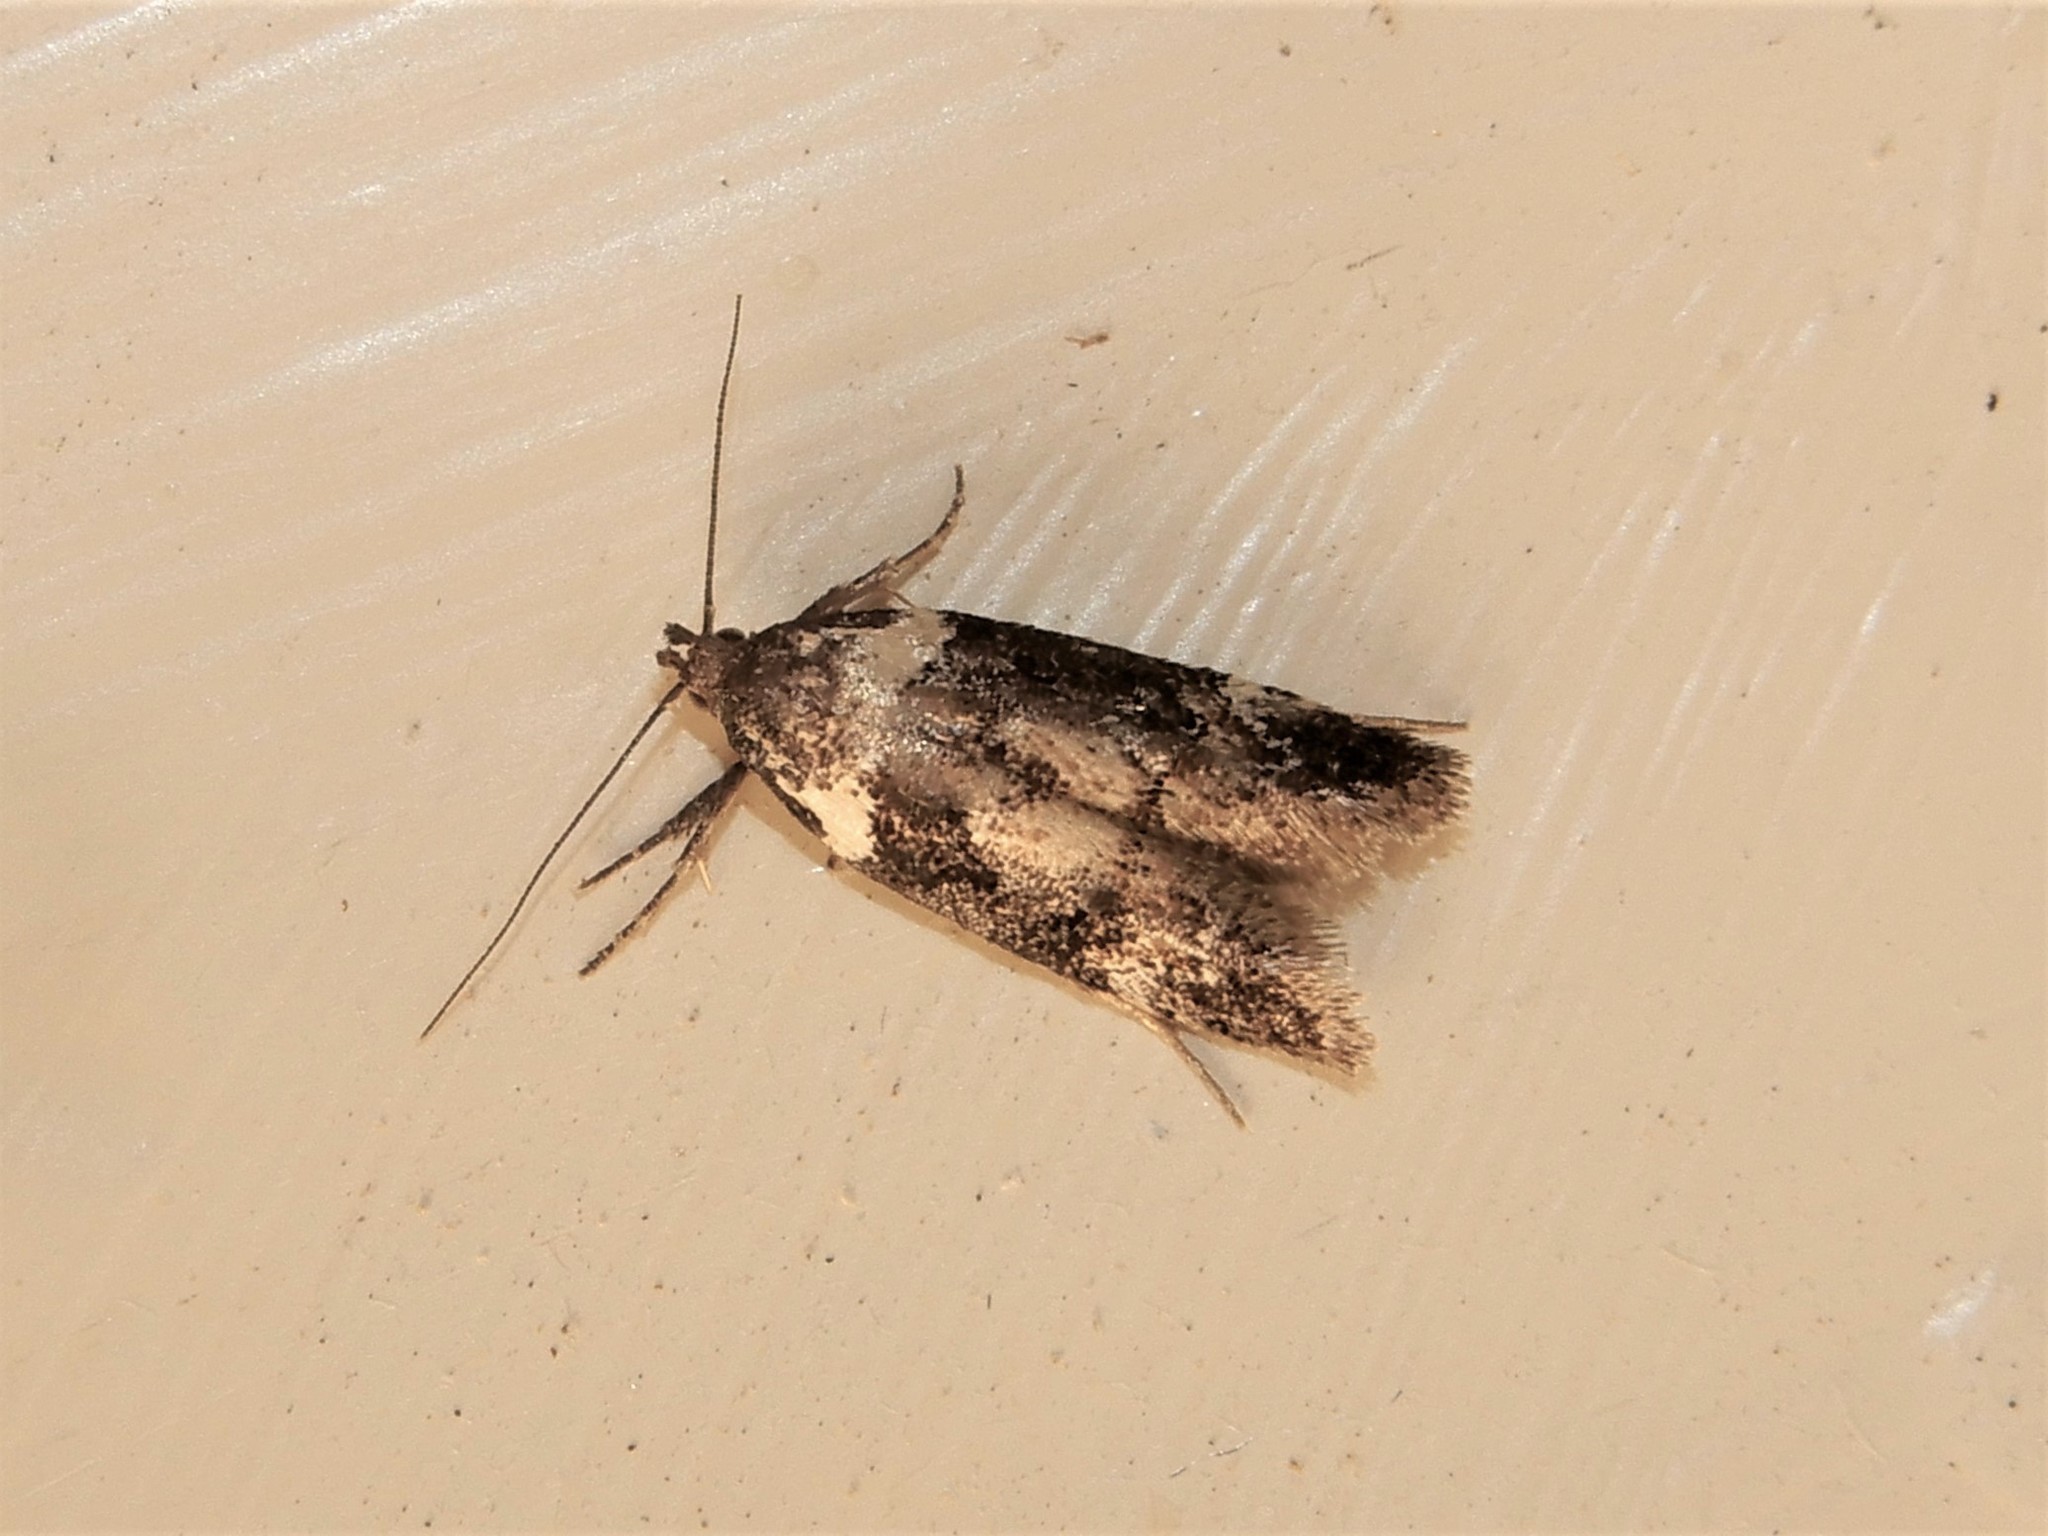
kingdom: Animalia
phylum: Arthropoda
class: Insecta
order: Lepidoptera
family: Oecophoridae
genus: Trachypepla
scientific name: Trachypepla conspicuella
